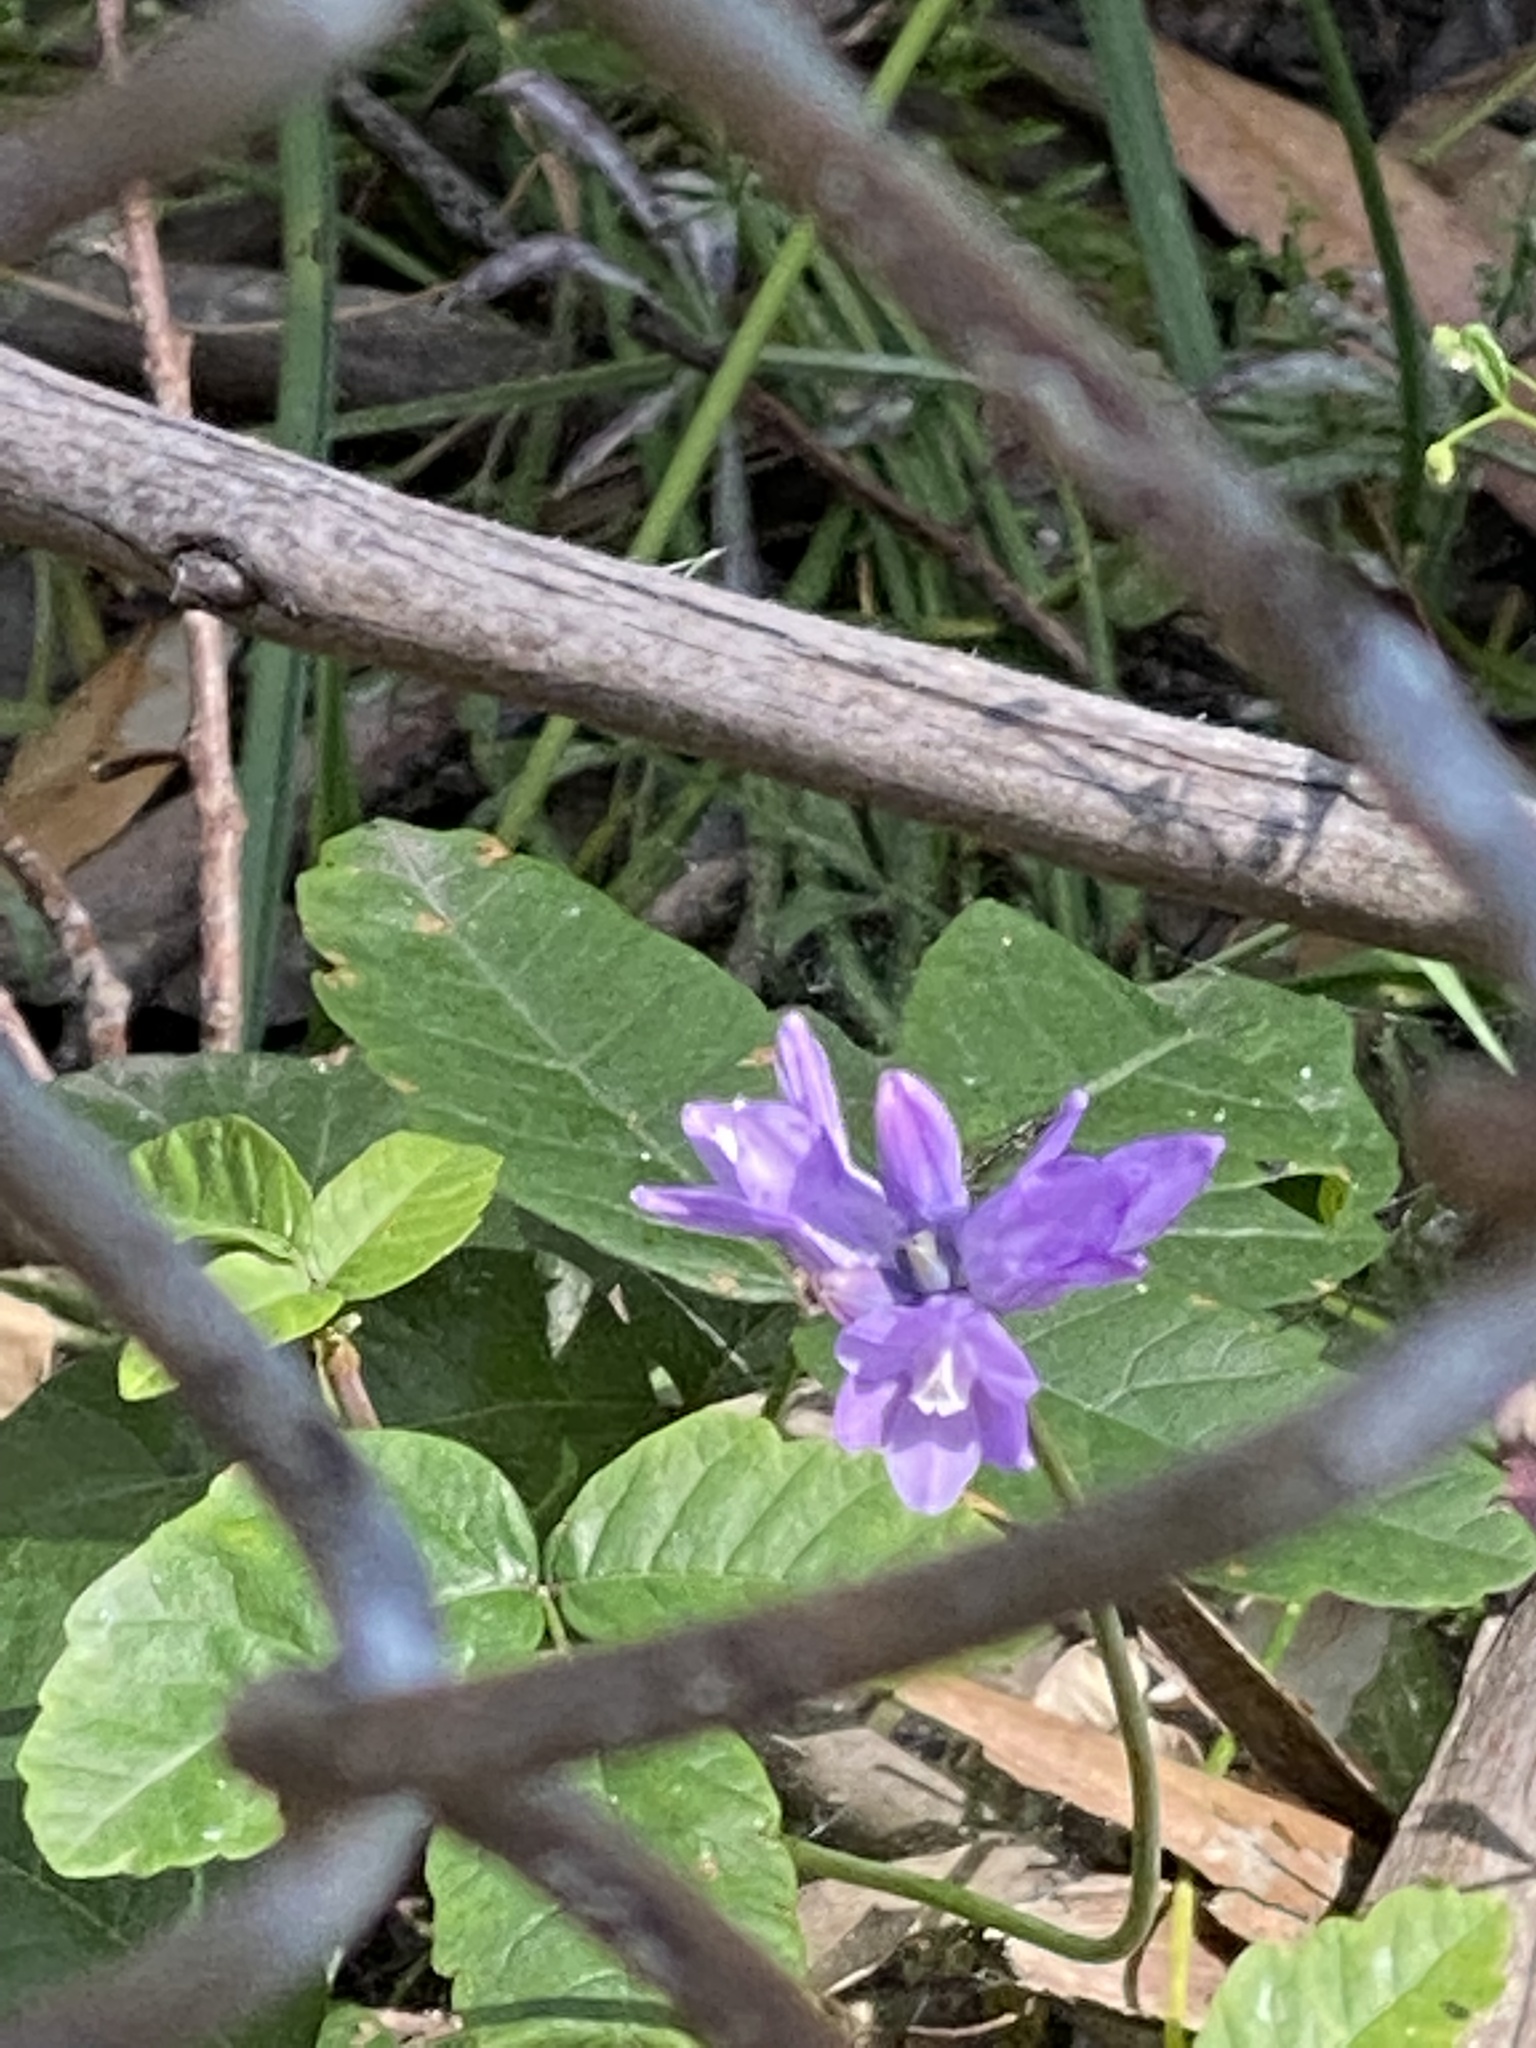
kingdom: Plantae
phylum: Tracheophyta
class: Liliopsida
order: Asparagales
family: Asparagaceae
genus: Dipterostemon
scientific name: Dipterostemon capitatus
